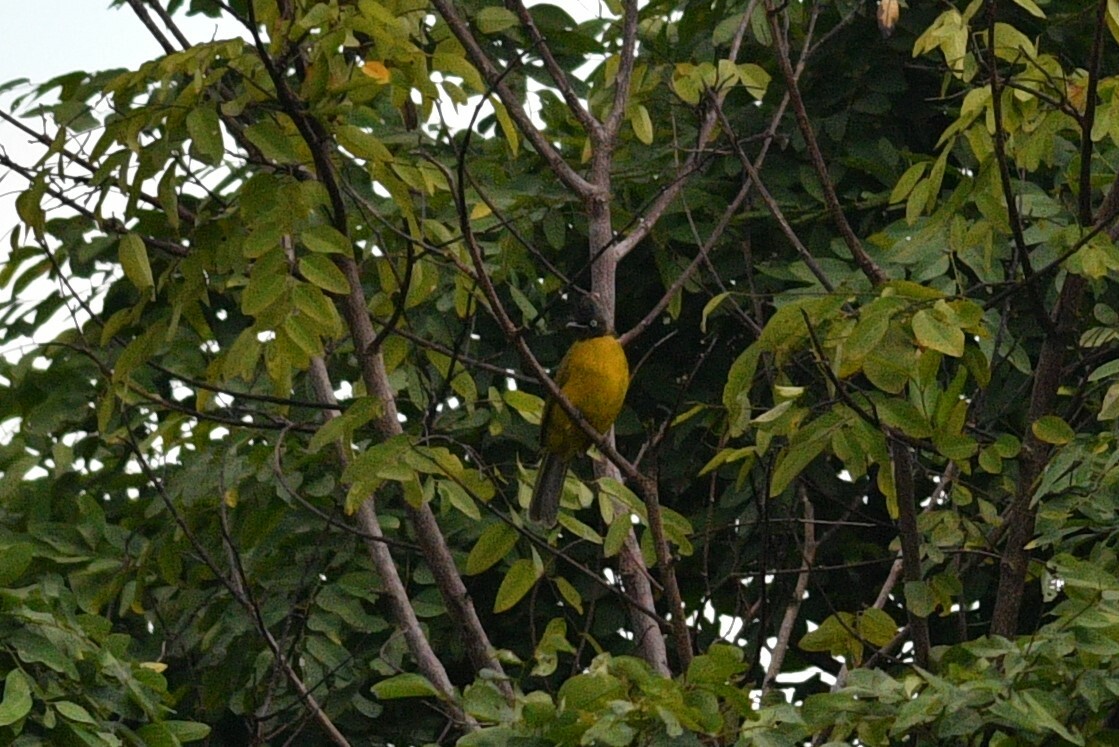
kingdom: Animalia
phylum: Chordata
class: Aves
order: Passeriformes
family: Pycnonotidae
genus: Pycnonotus
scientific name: Pycnonotus flaviventris
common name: Black-crested bulbul
